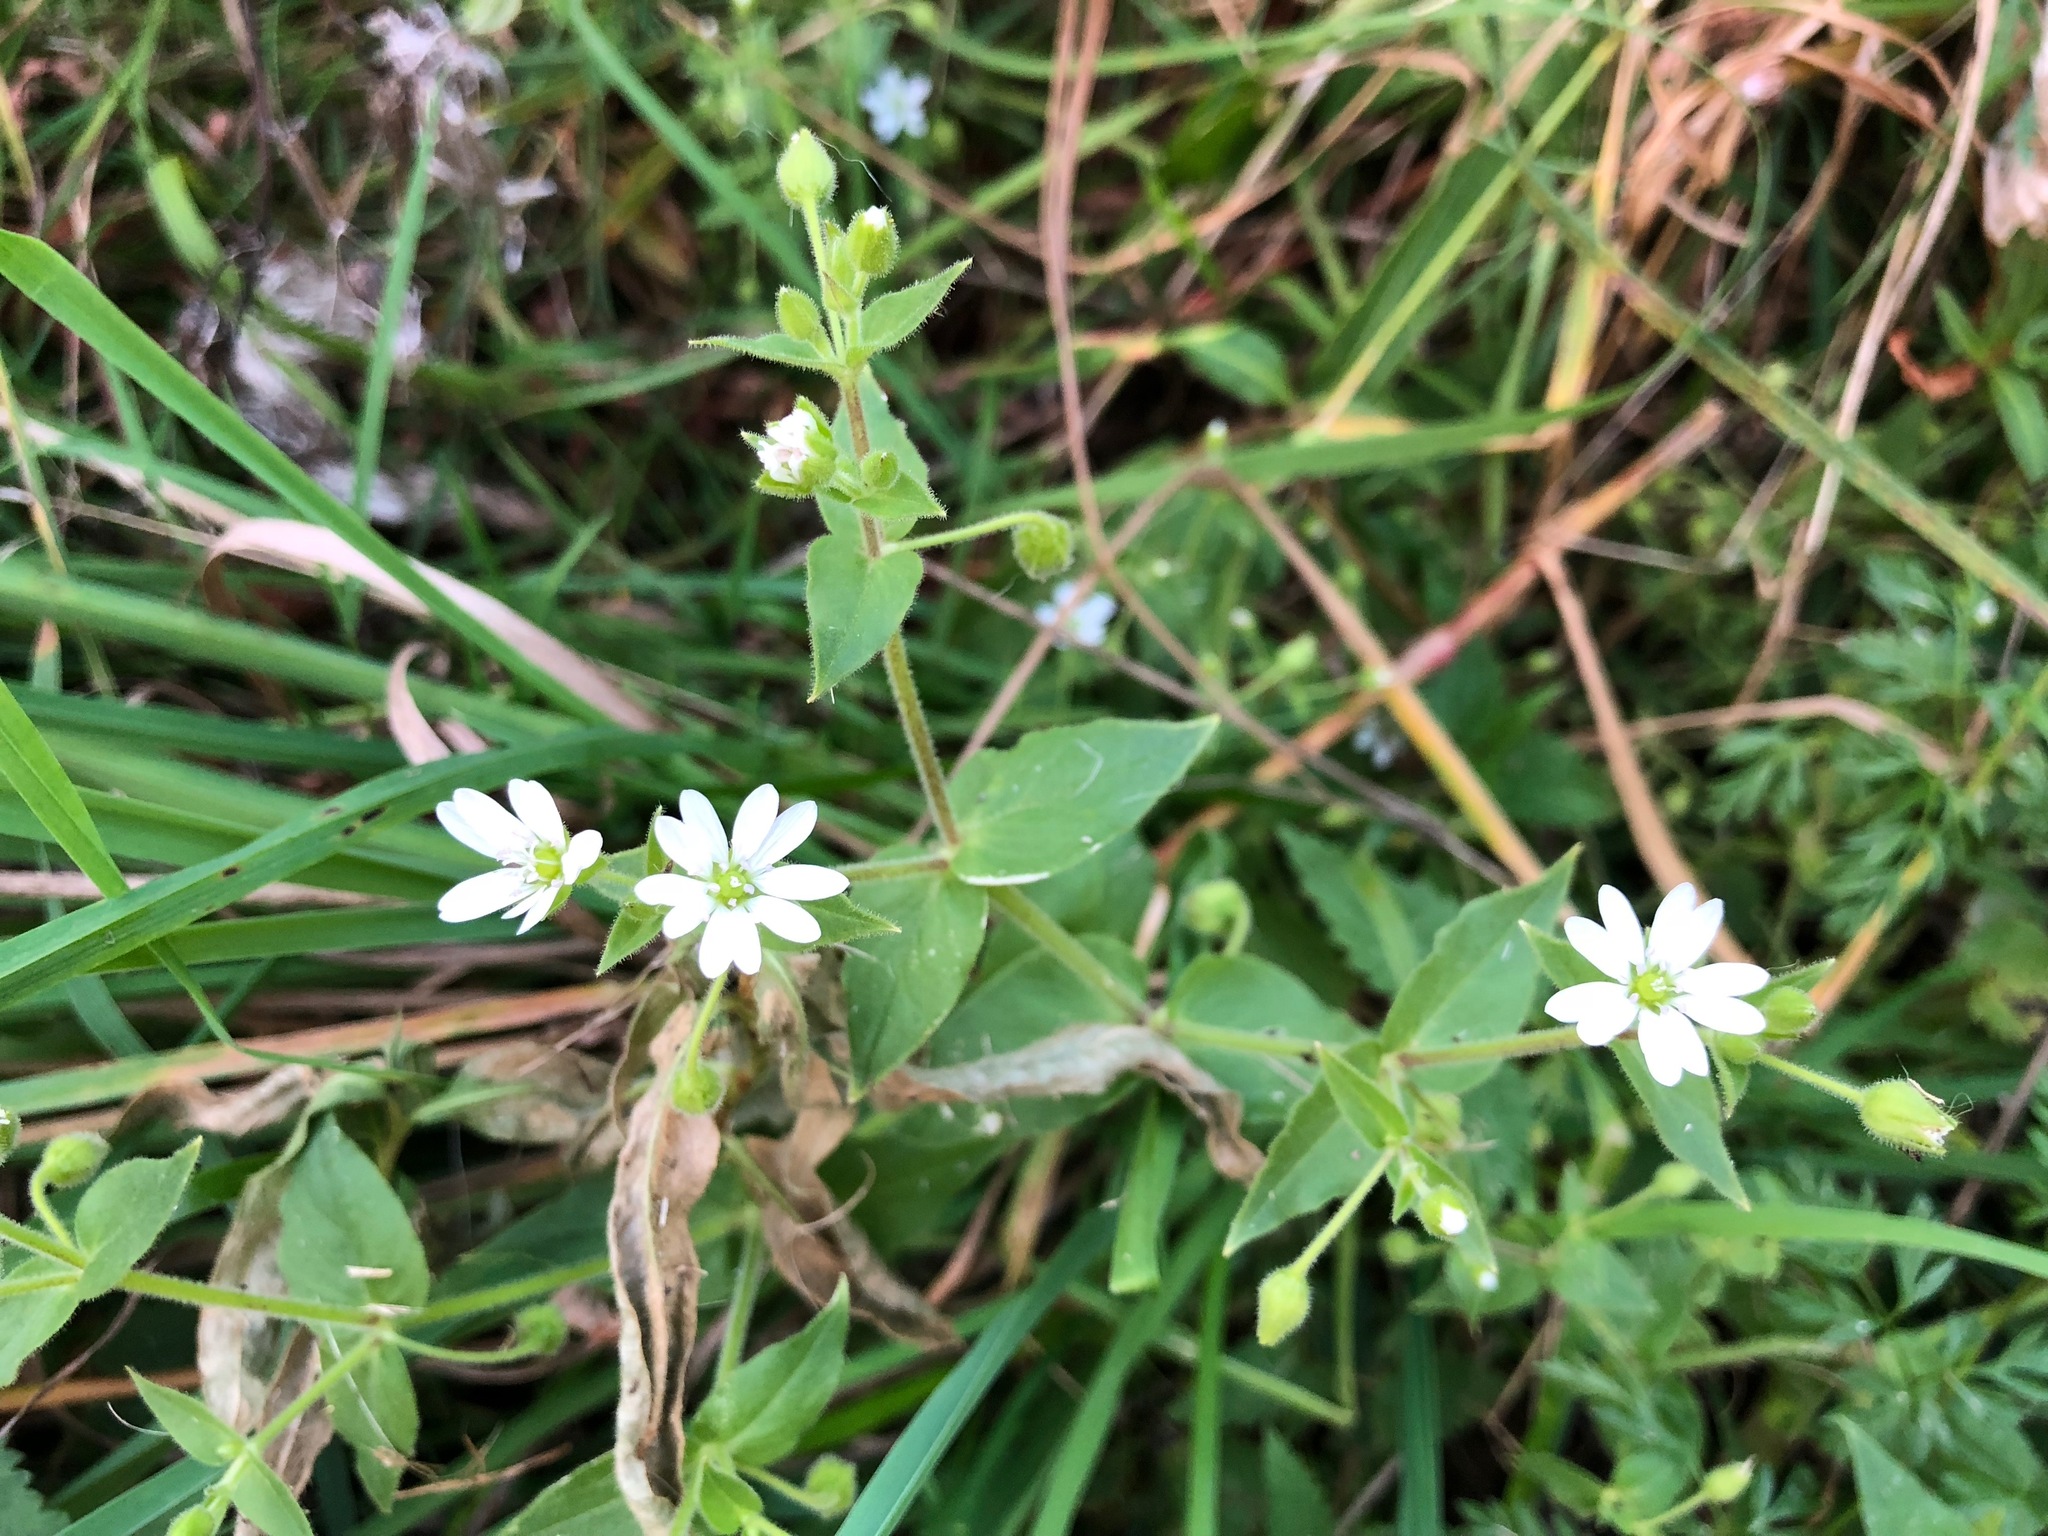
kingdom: Plantae
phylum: Tracheophyta
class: Magnoliopsida
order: Caryophyllales
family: Caryophyllaceae
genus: Stellaria
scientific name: Stellaria aquatica
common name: Water chickweed
